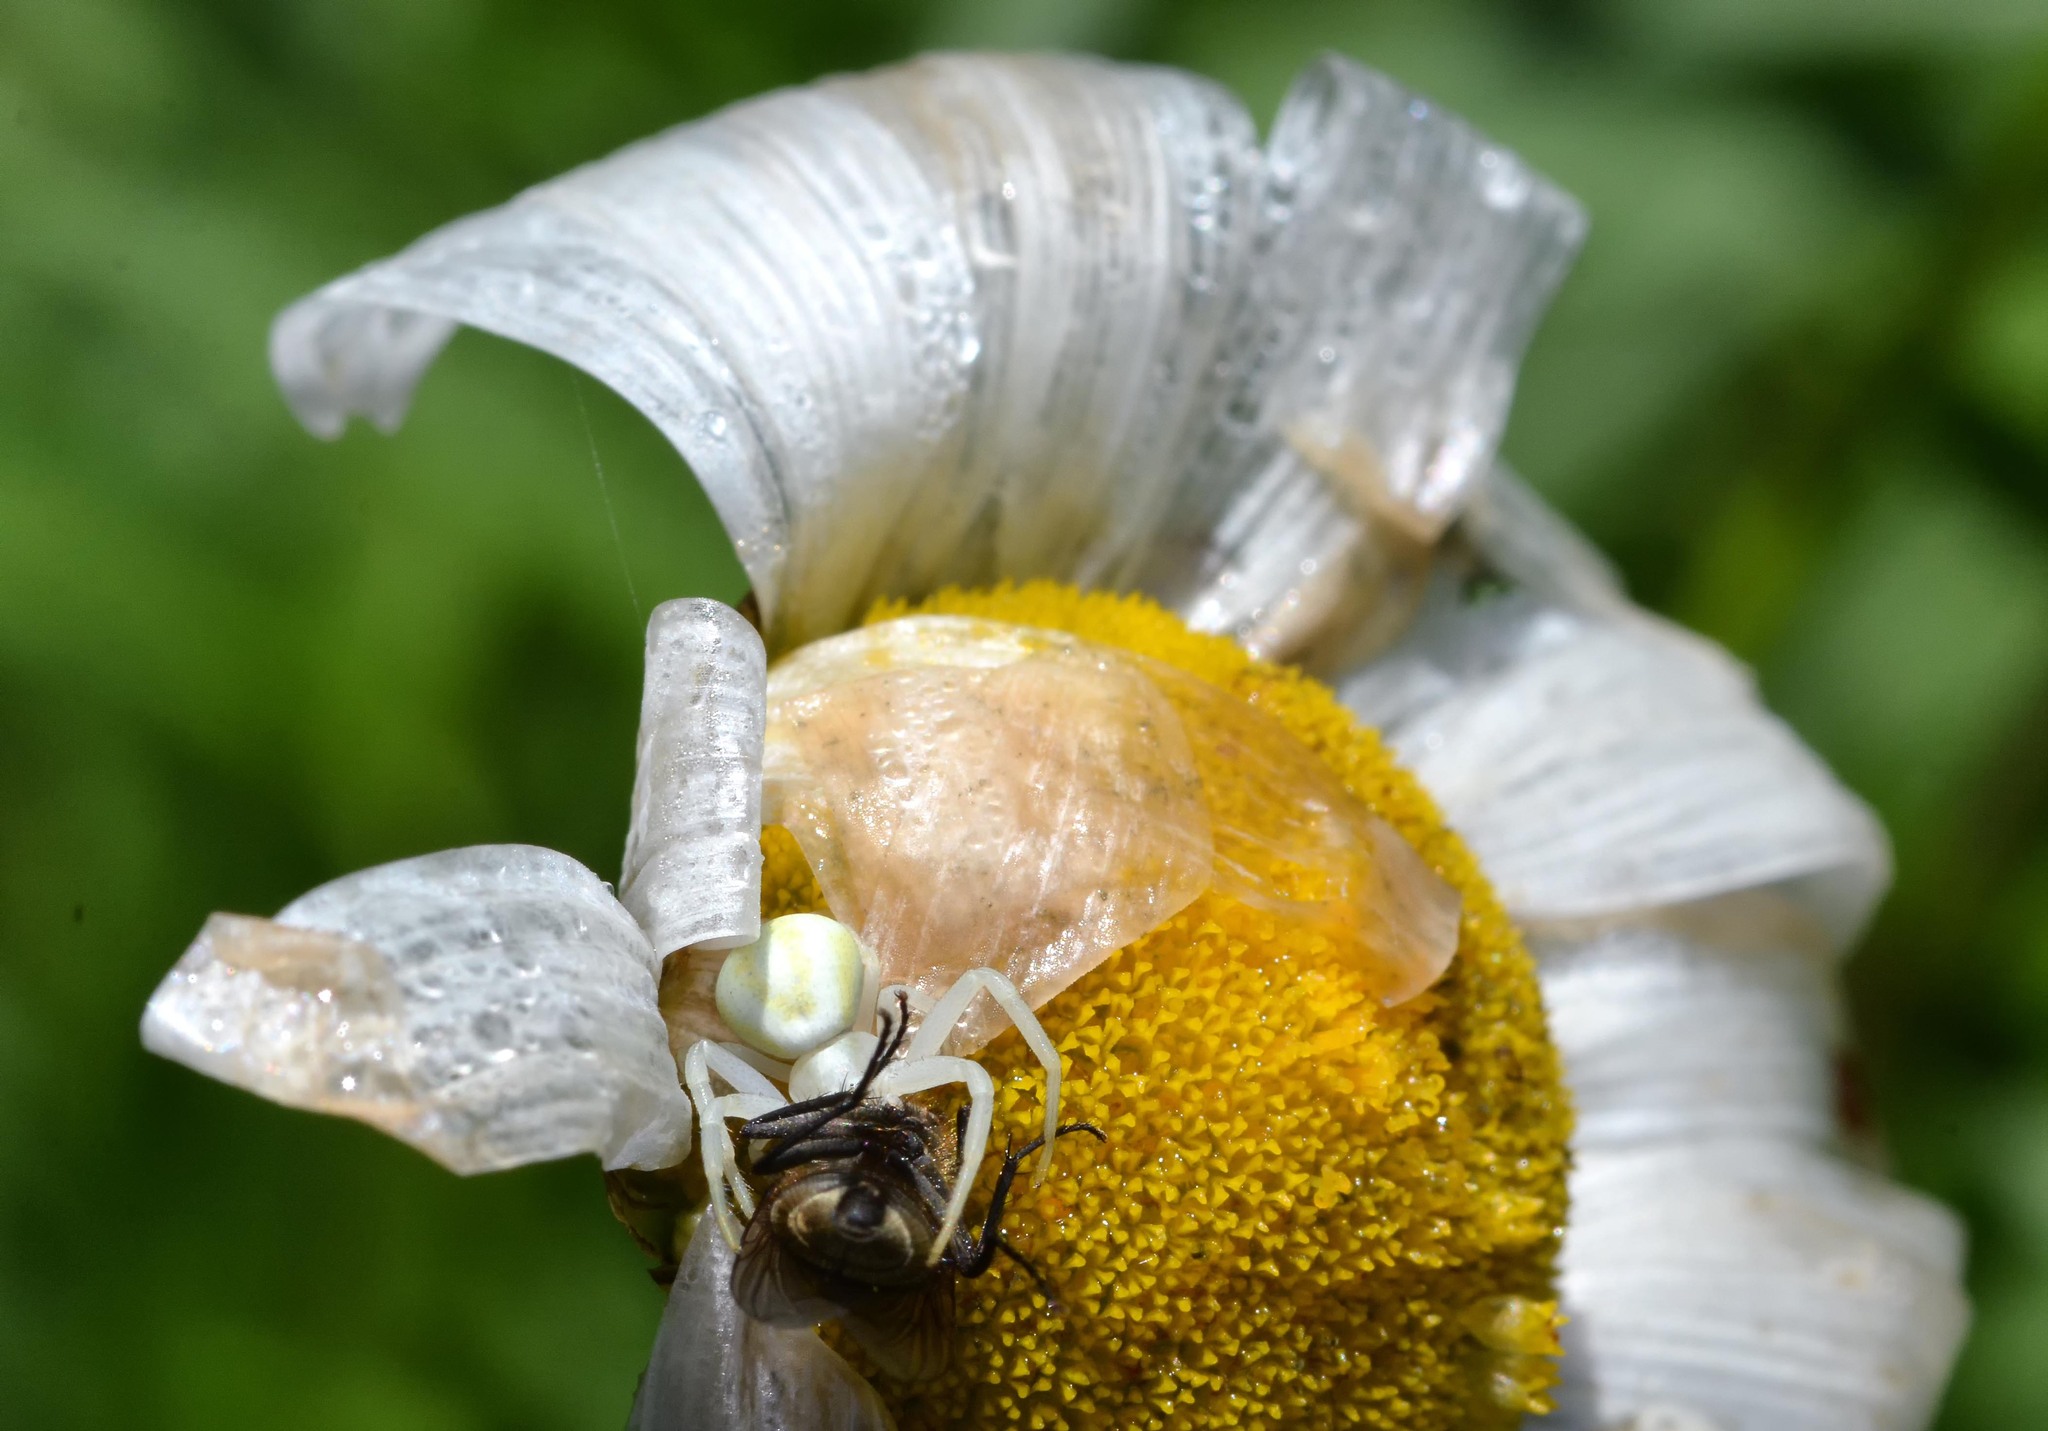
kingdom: Animalia
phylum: Arthropoda
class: Arachnida
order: Araneae
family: Thomisidae
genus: Misumena
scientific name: Misumena vatia
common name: Goldenrod crab spider
